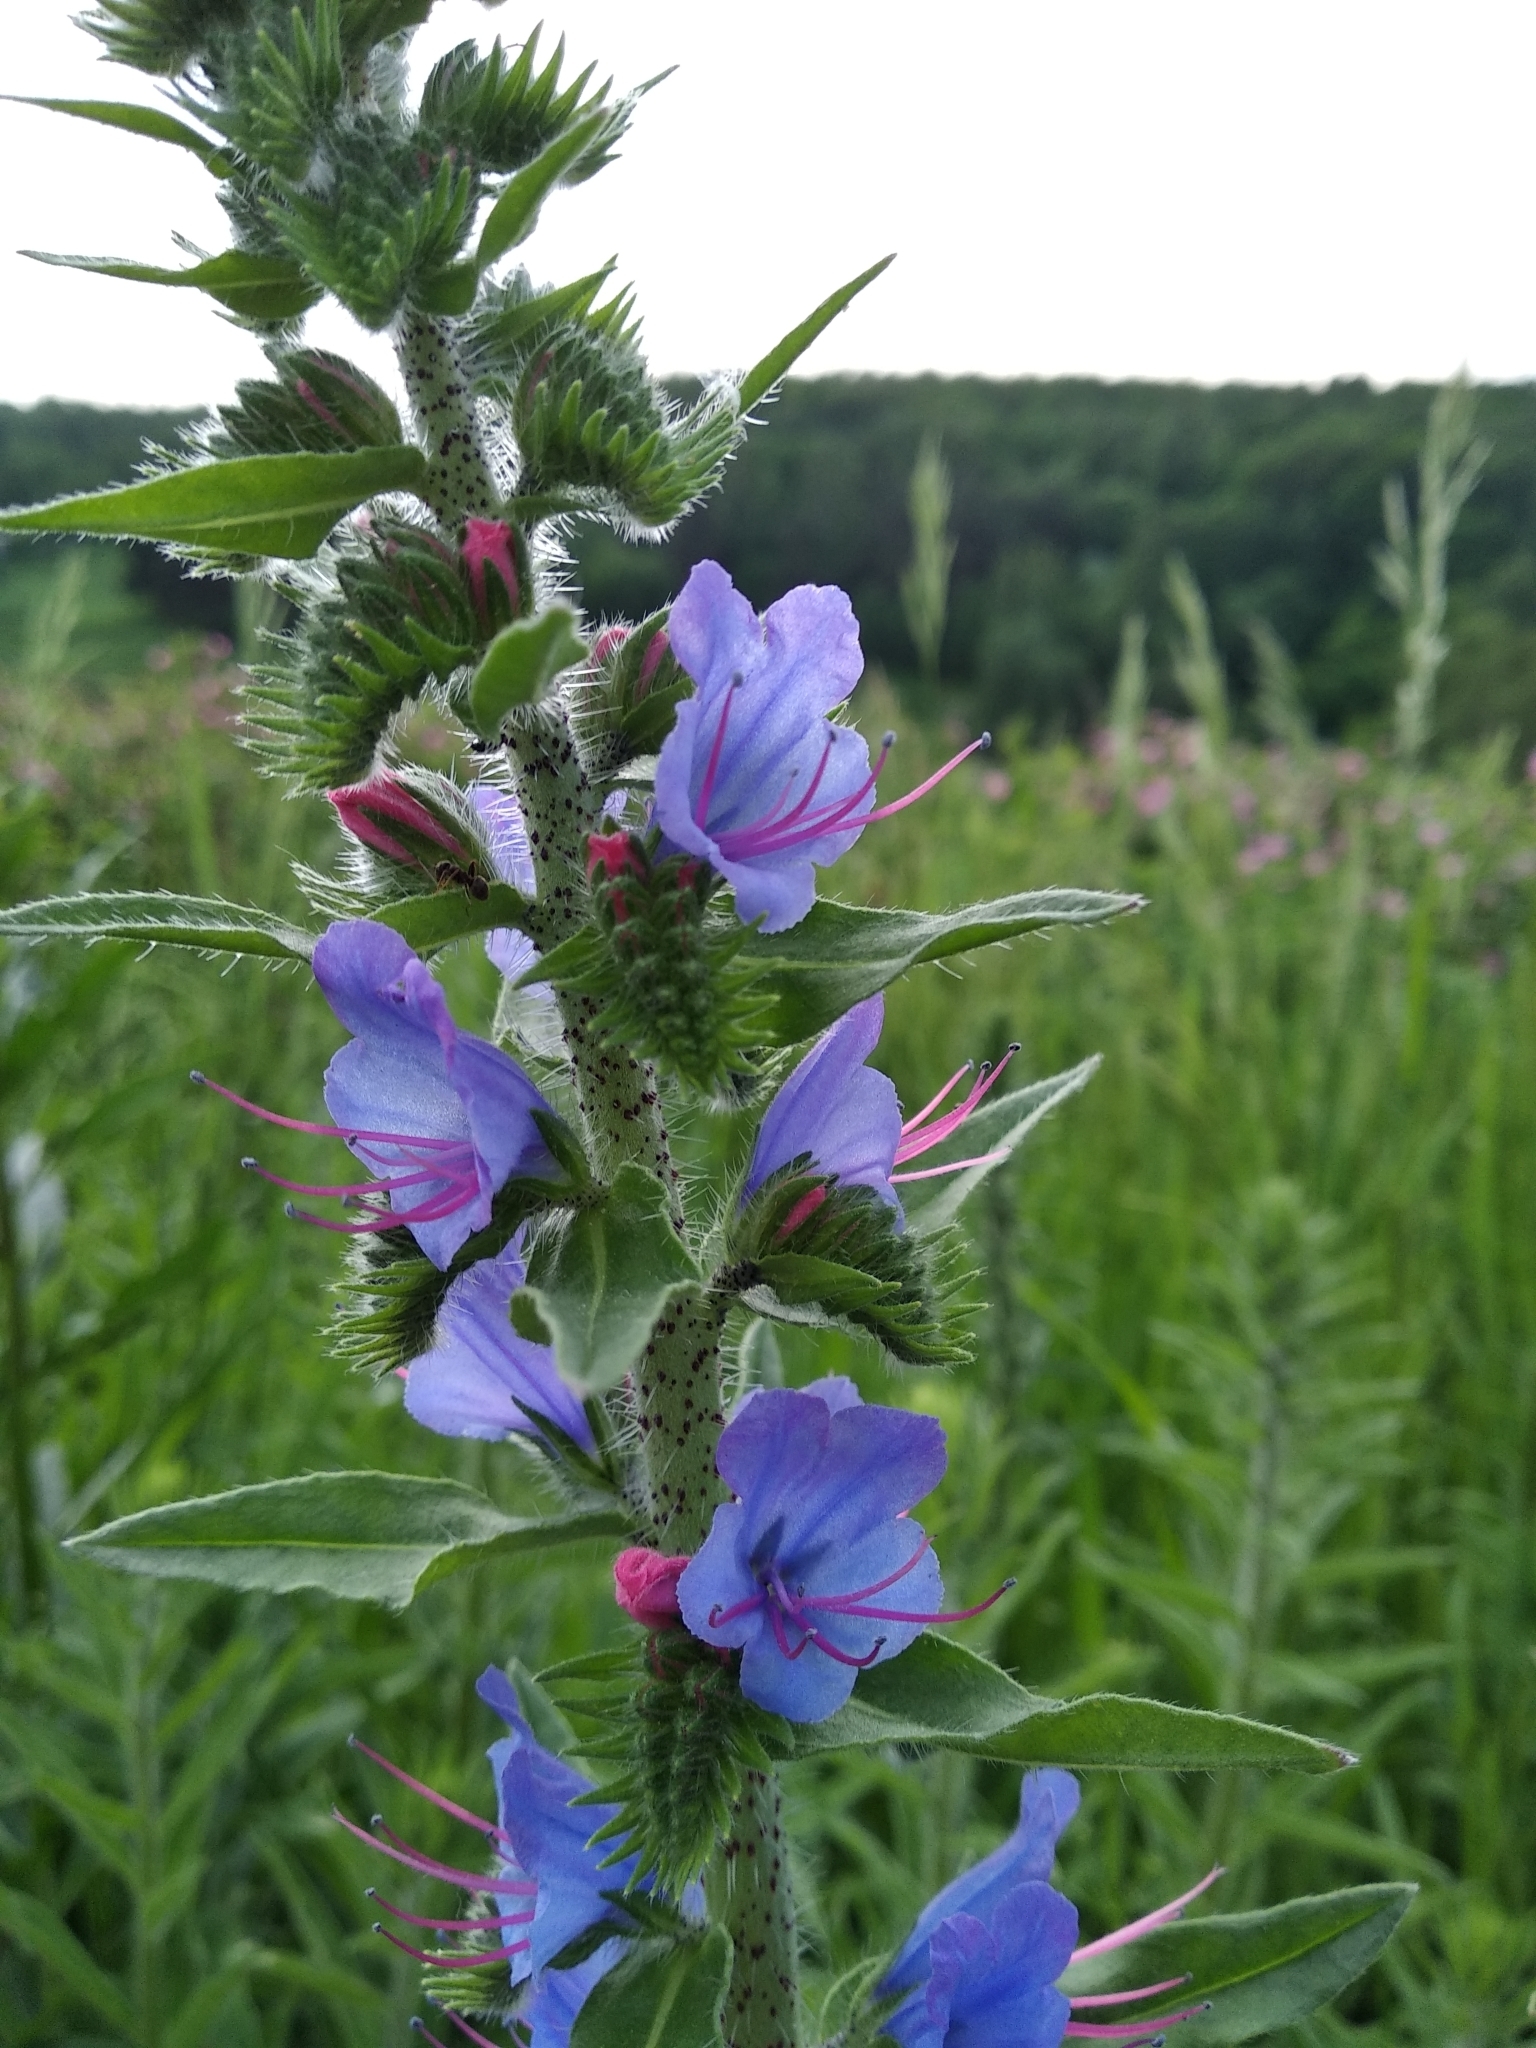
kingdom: Plantae
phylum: Tracheophyta
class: Magnoliopsida
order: Boraginales
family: Boraginaceae
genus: Echium
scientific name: Echium vulgare
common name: Common viper's bugloss
